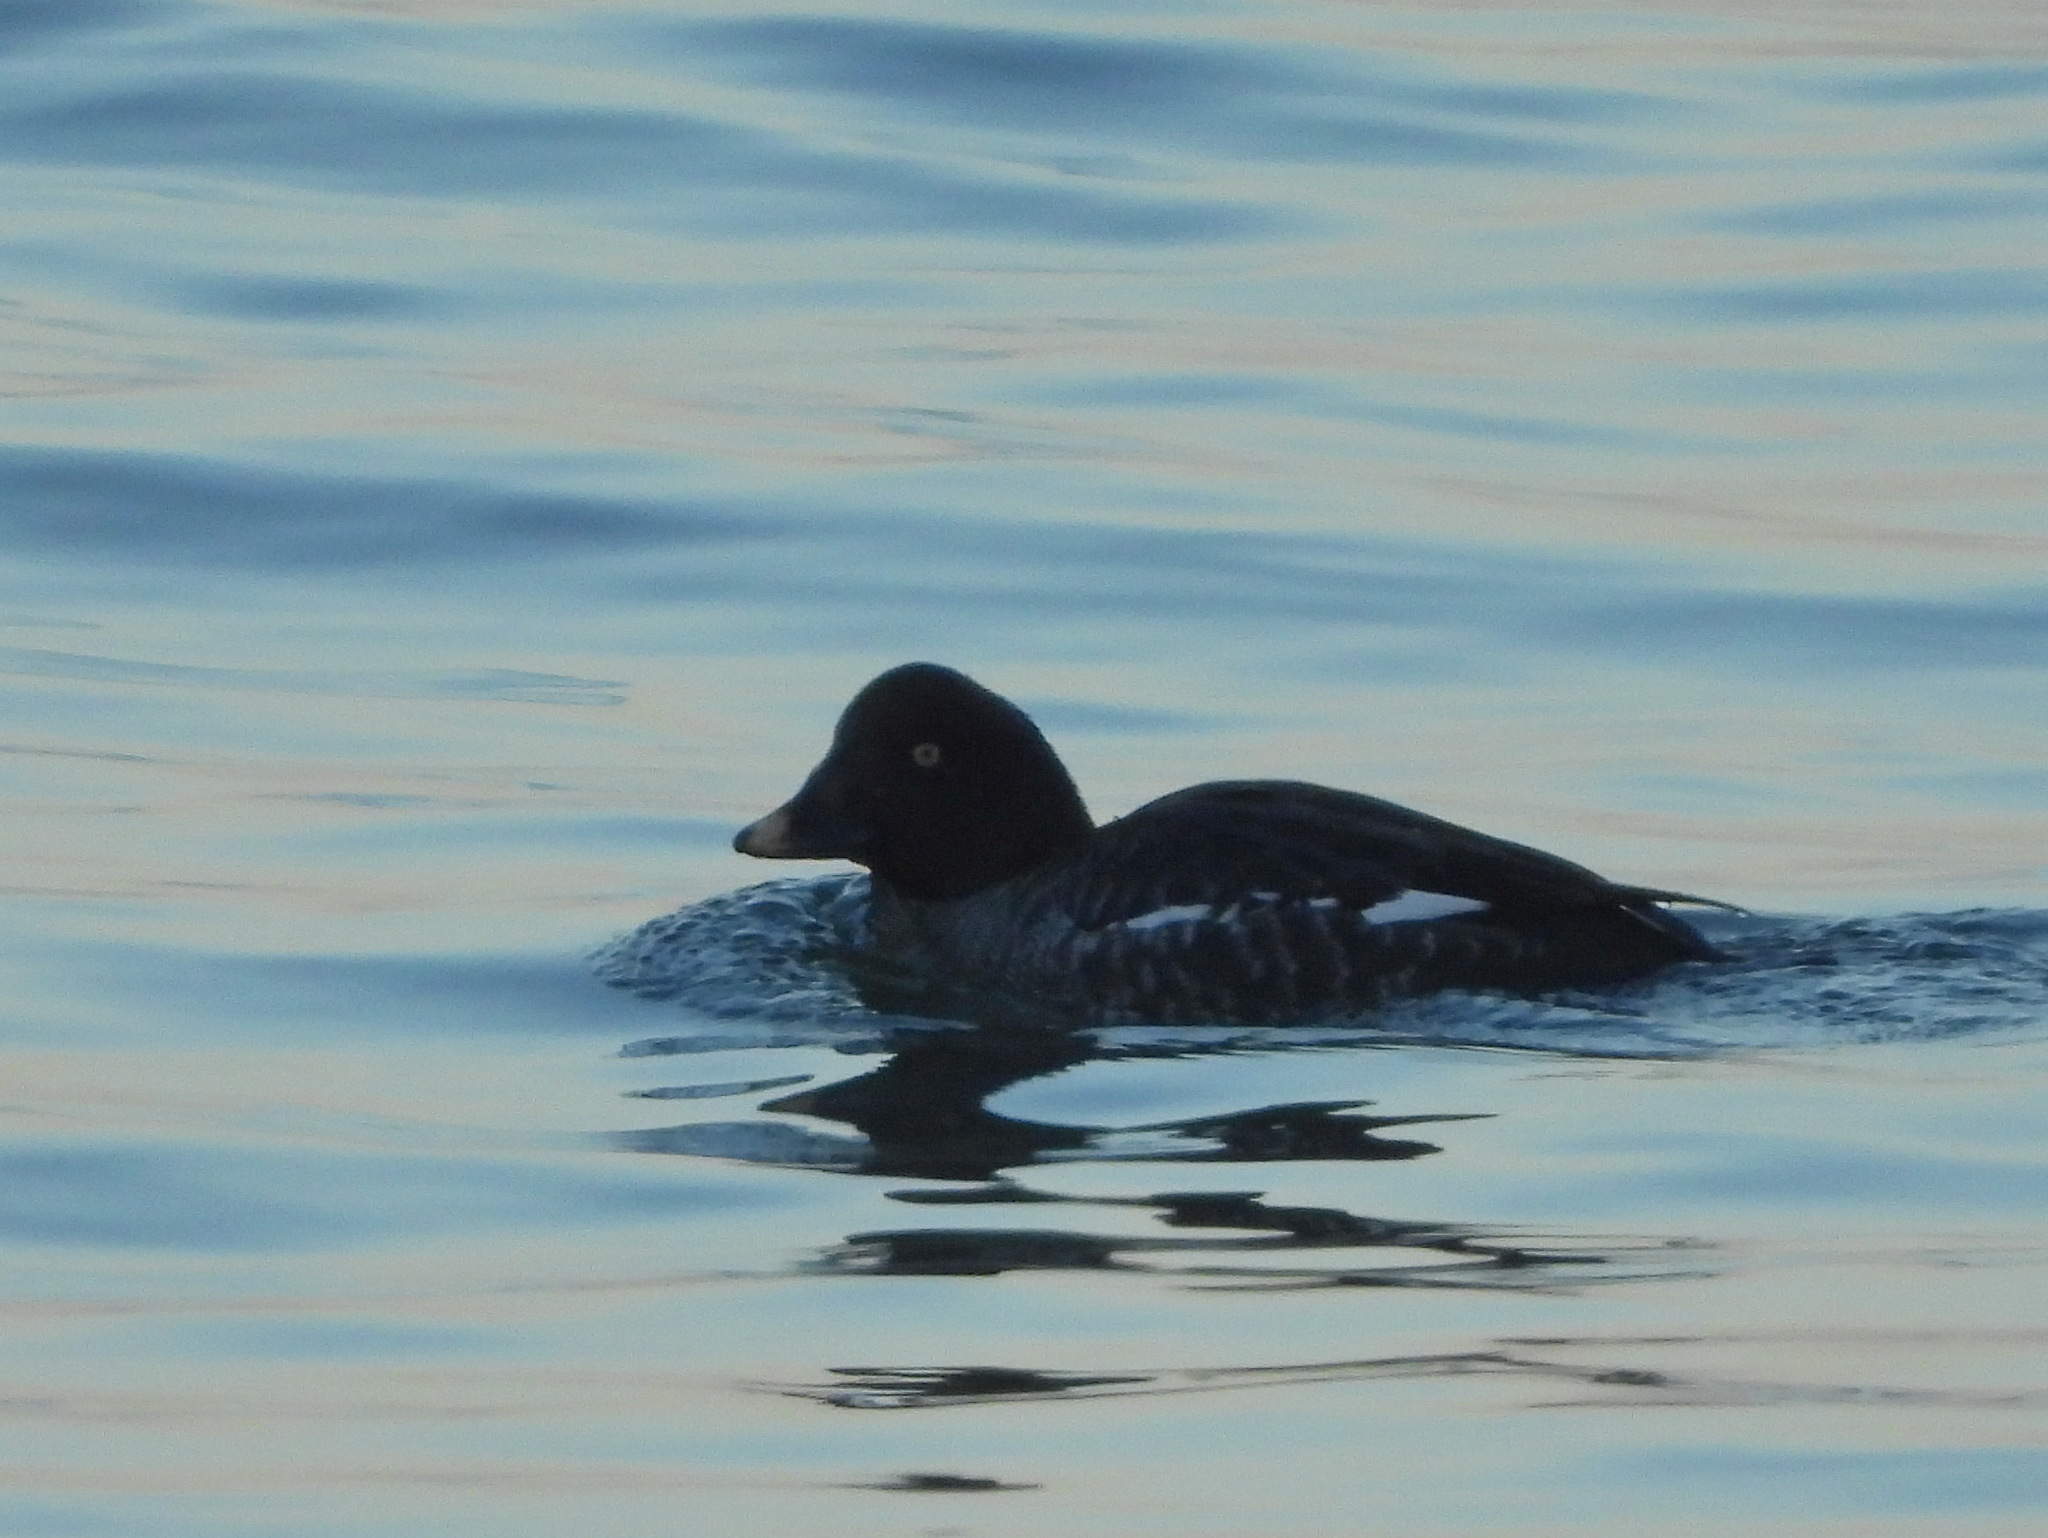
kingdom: Animalia
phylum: Chordata
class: Aves
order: Anseriformes
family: Anatidae
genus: Bucephala
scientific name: Bucephala clangula
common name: Common goldeneye
